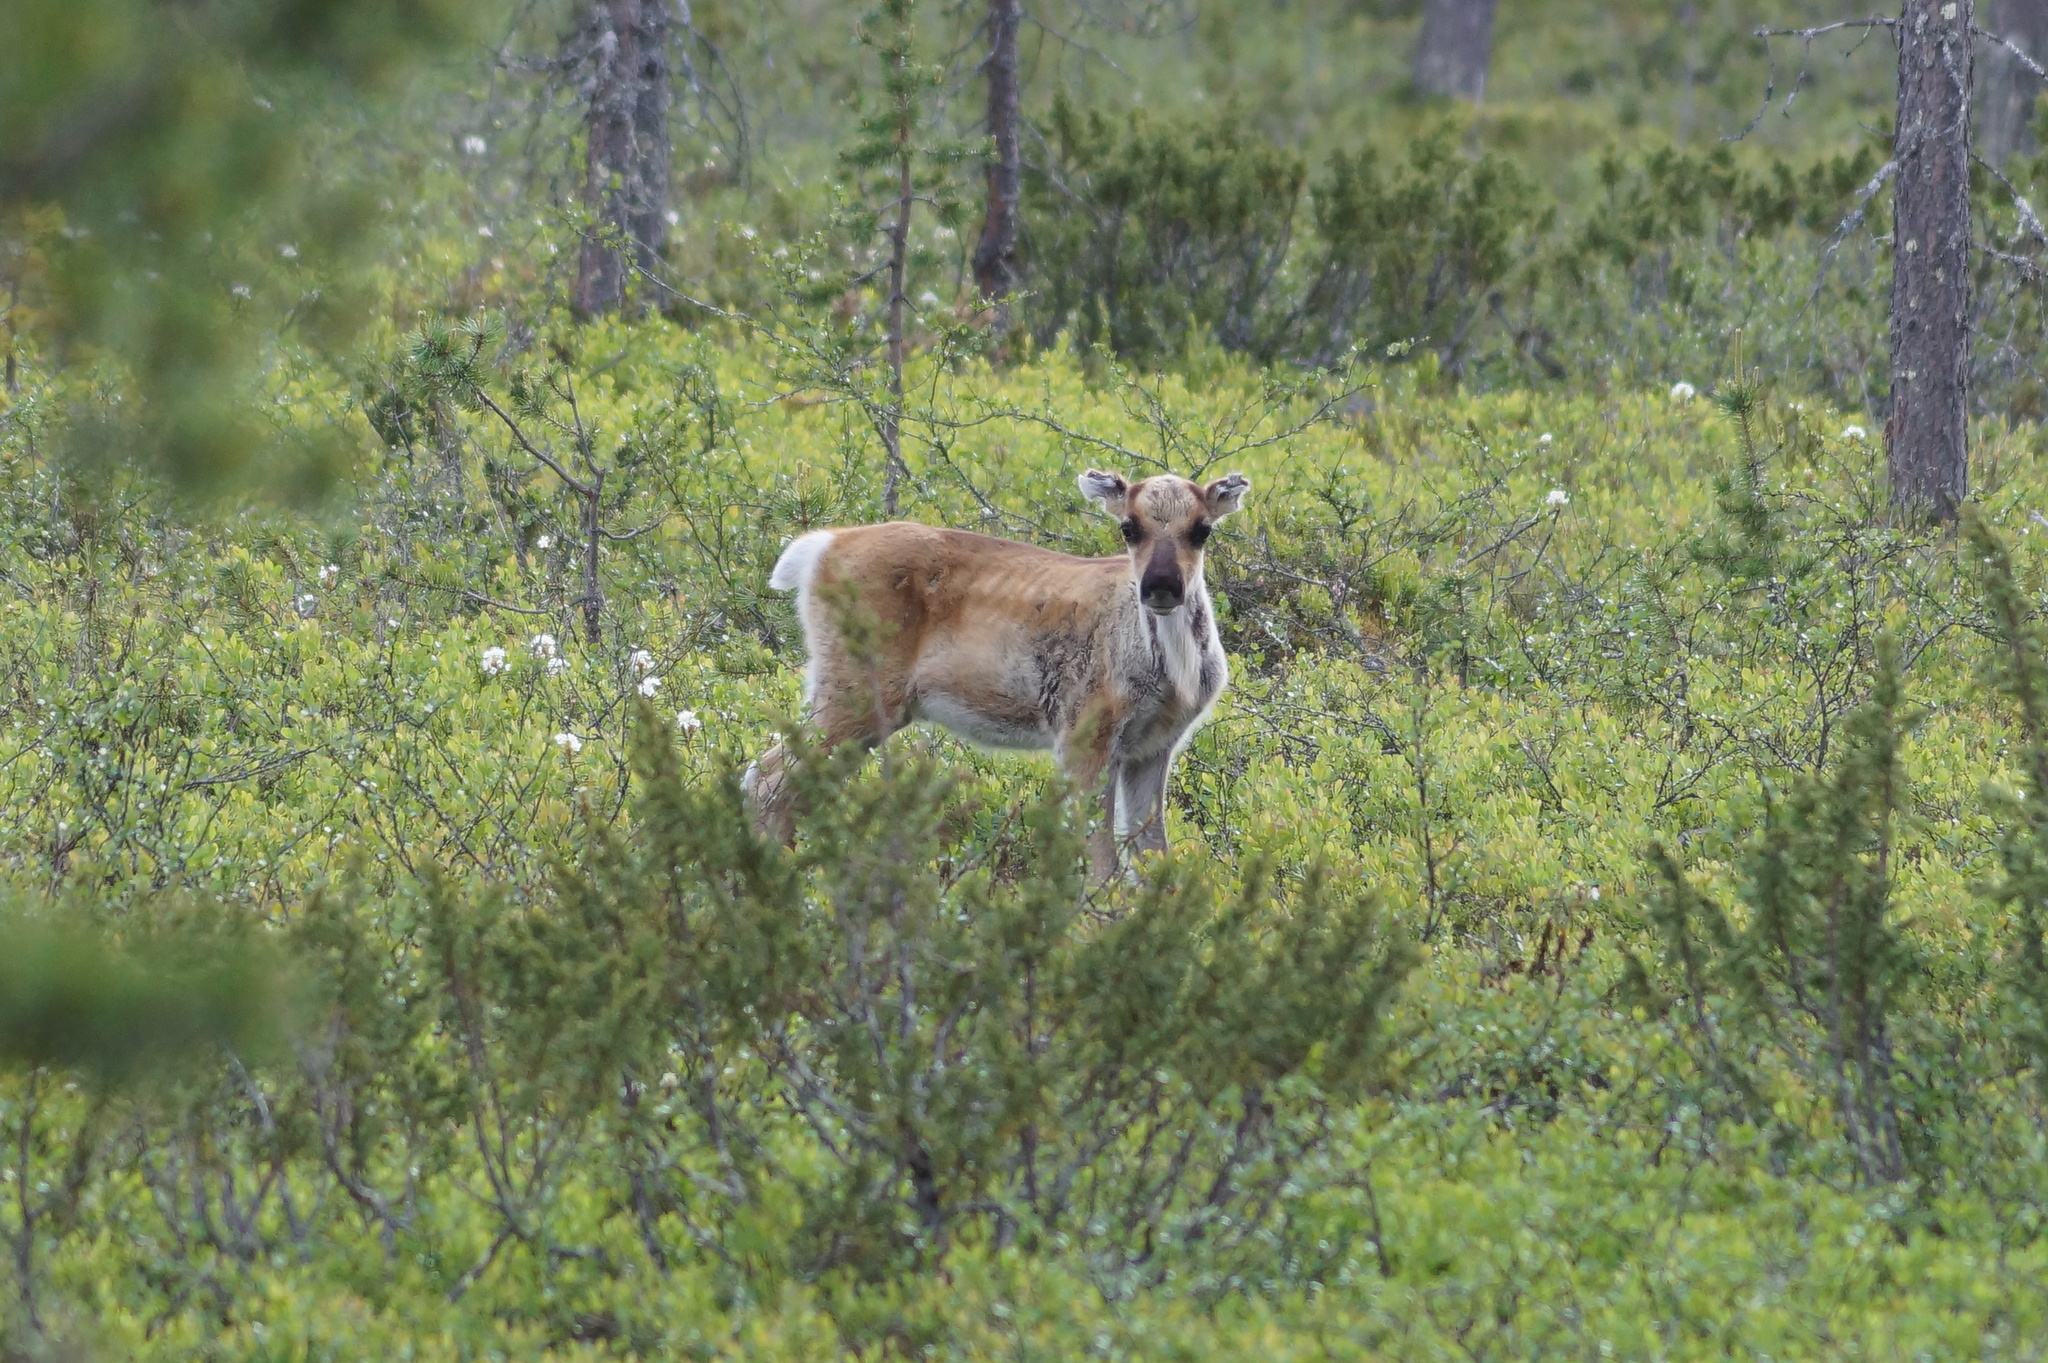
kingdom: Animalia
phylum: Chordata
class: Mammalia
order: Artiodactyla
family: Cervidae
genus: Rangifer
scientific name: Rangifer tarandus
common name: Reindeer
